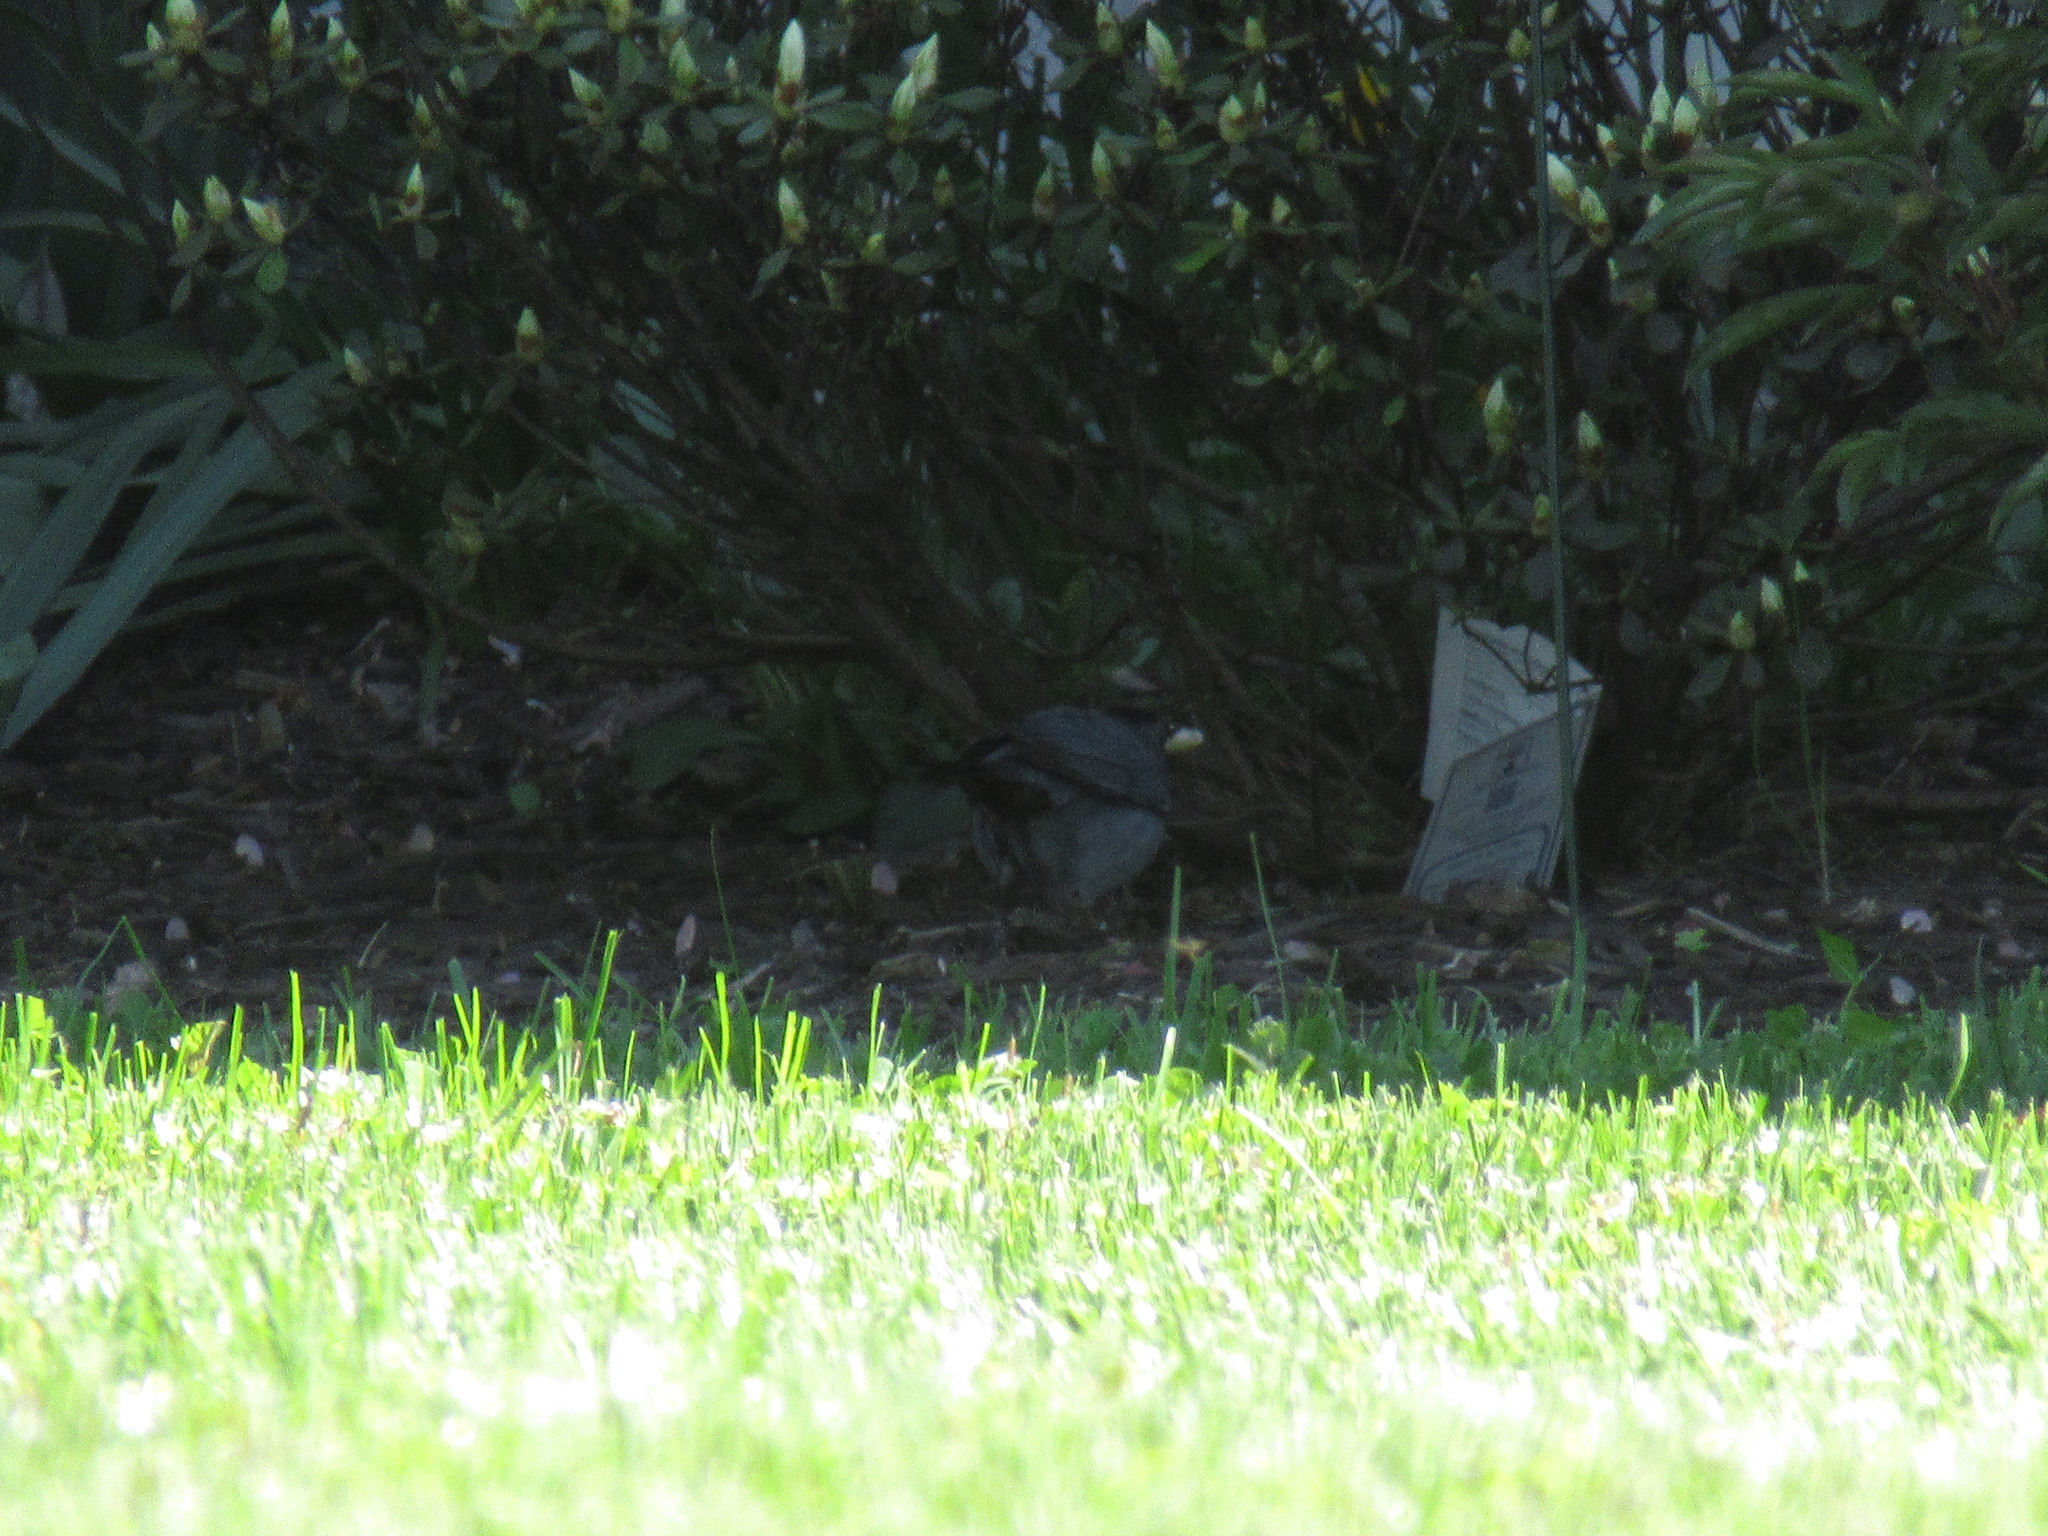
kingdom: Animalia
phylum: Chordata
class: Aves
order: Passeriformes
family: Mimidae
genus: Dumetella
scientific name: Dumetella carolinensis
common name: Gray catbird
